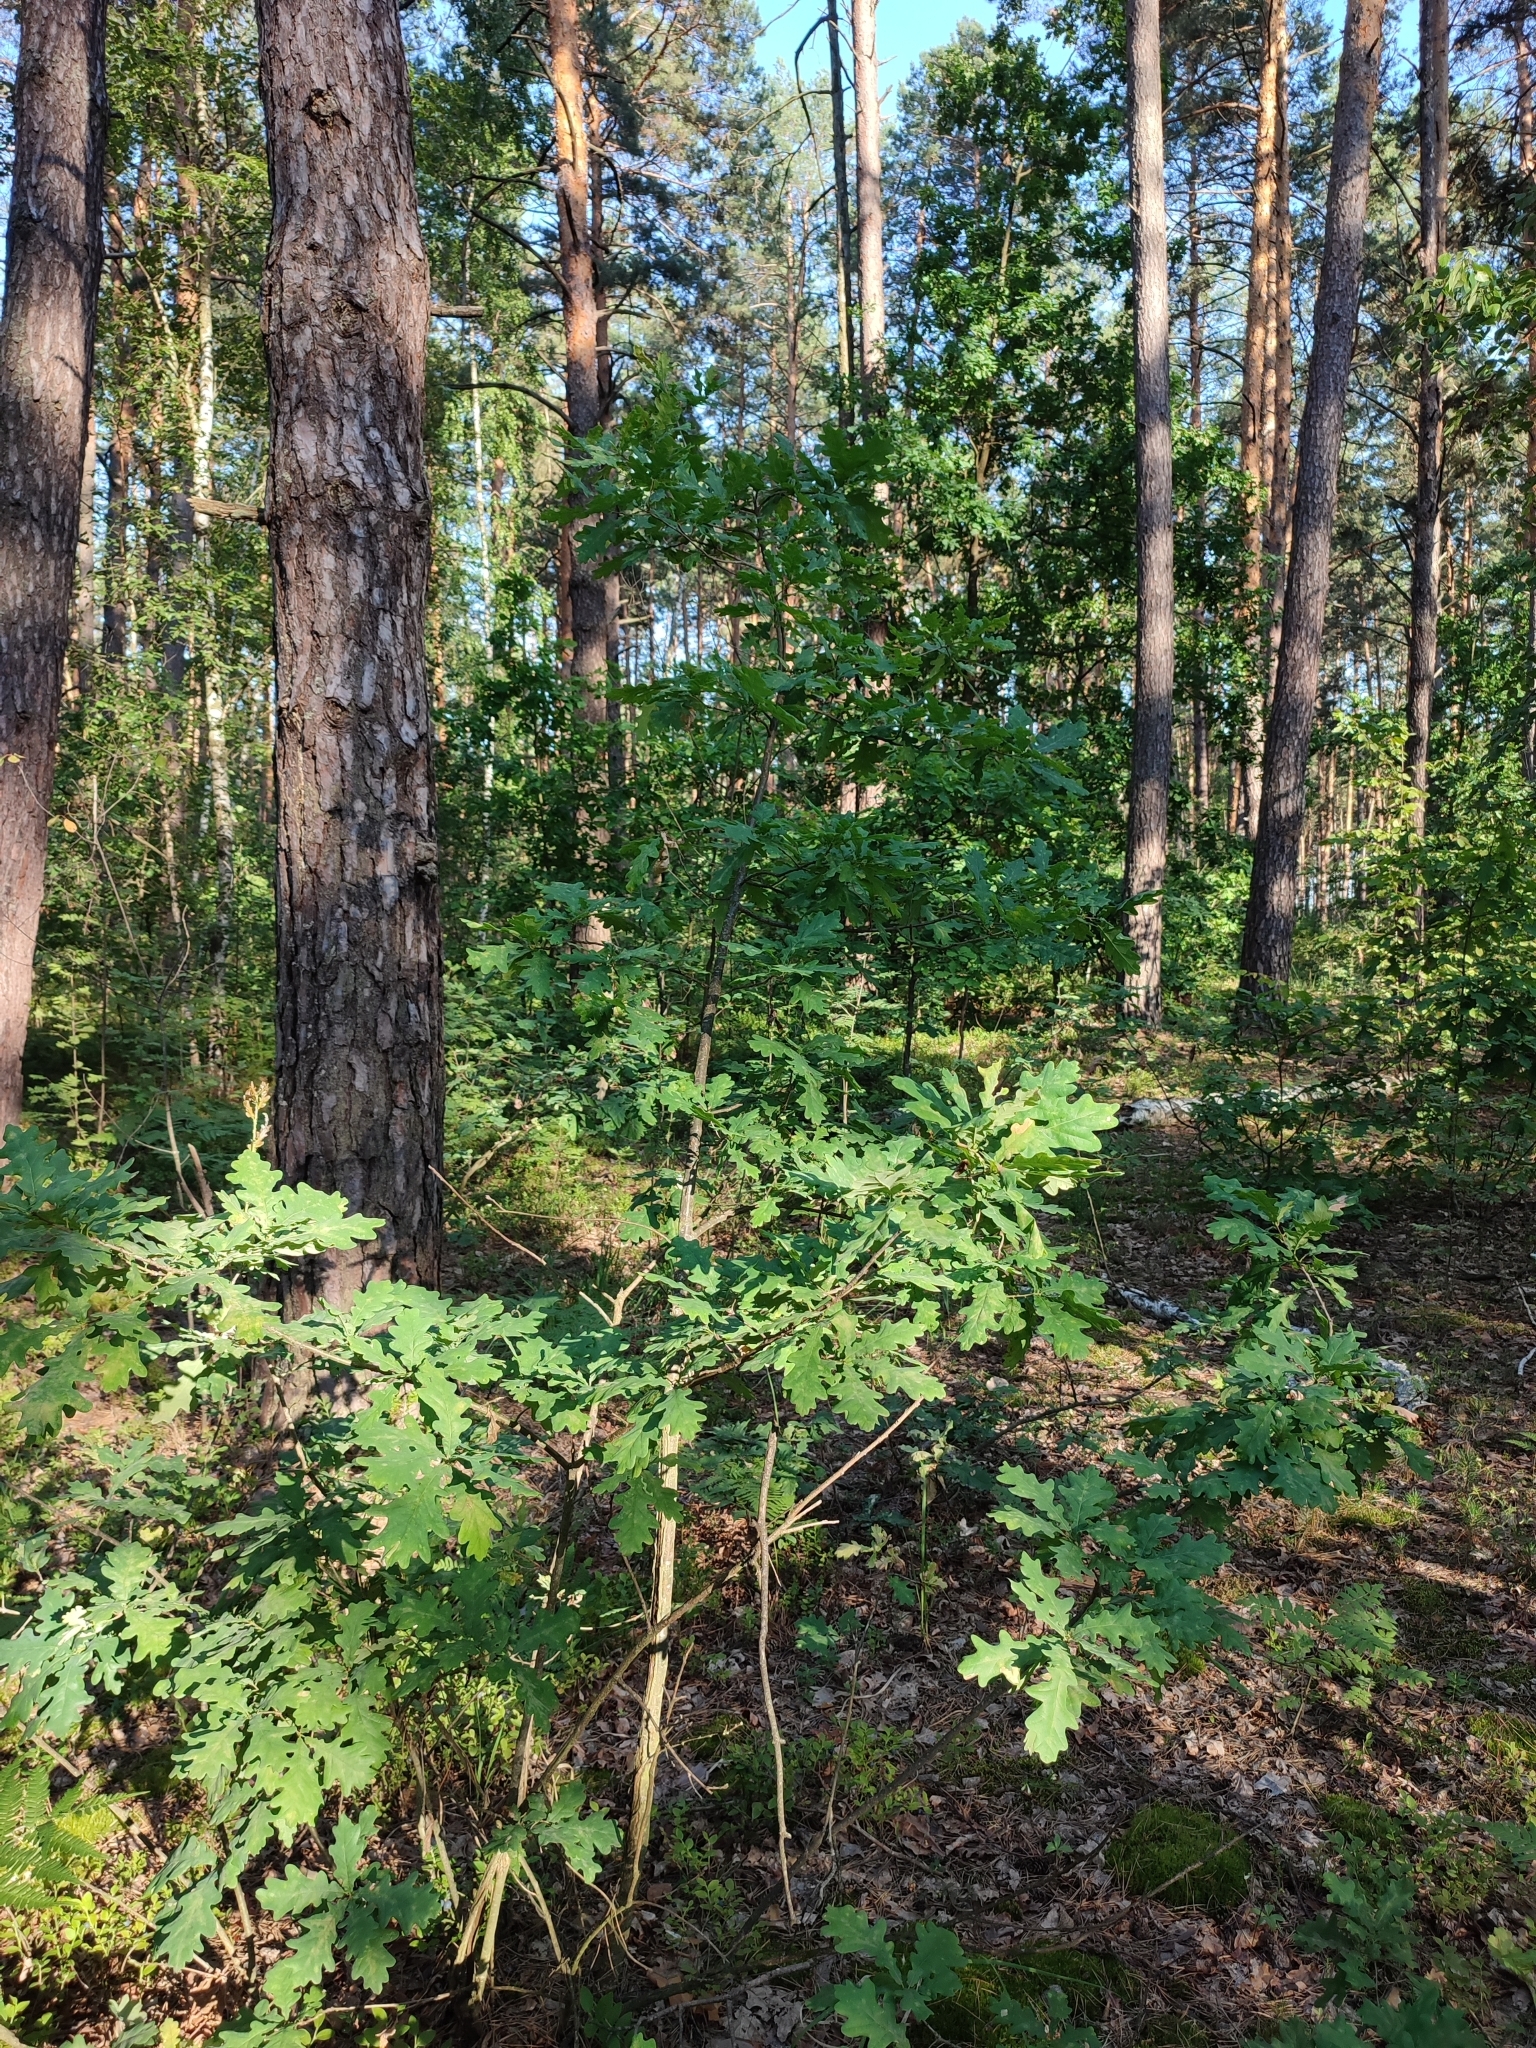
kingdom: Plantae
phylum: Tracheophyta
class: Magnoliopsida
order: Fagales
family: Fagaceae
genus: Quercus
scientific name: Quercus robur
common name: Pedunculate oak
